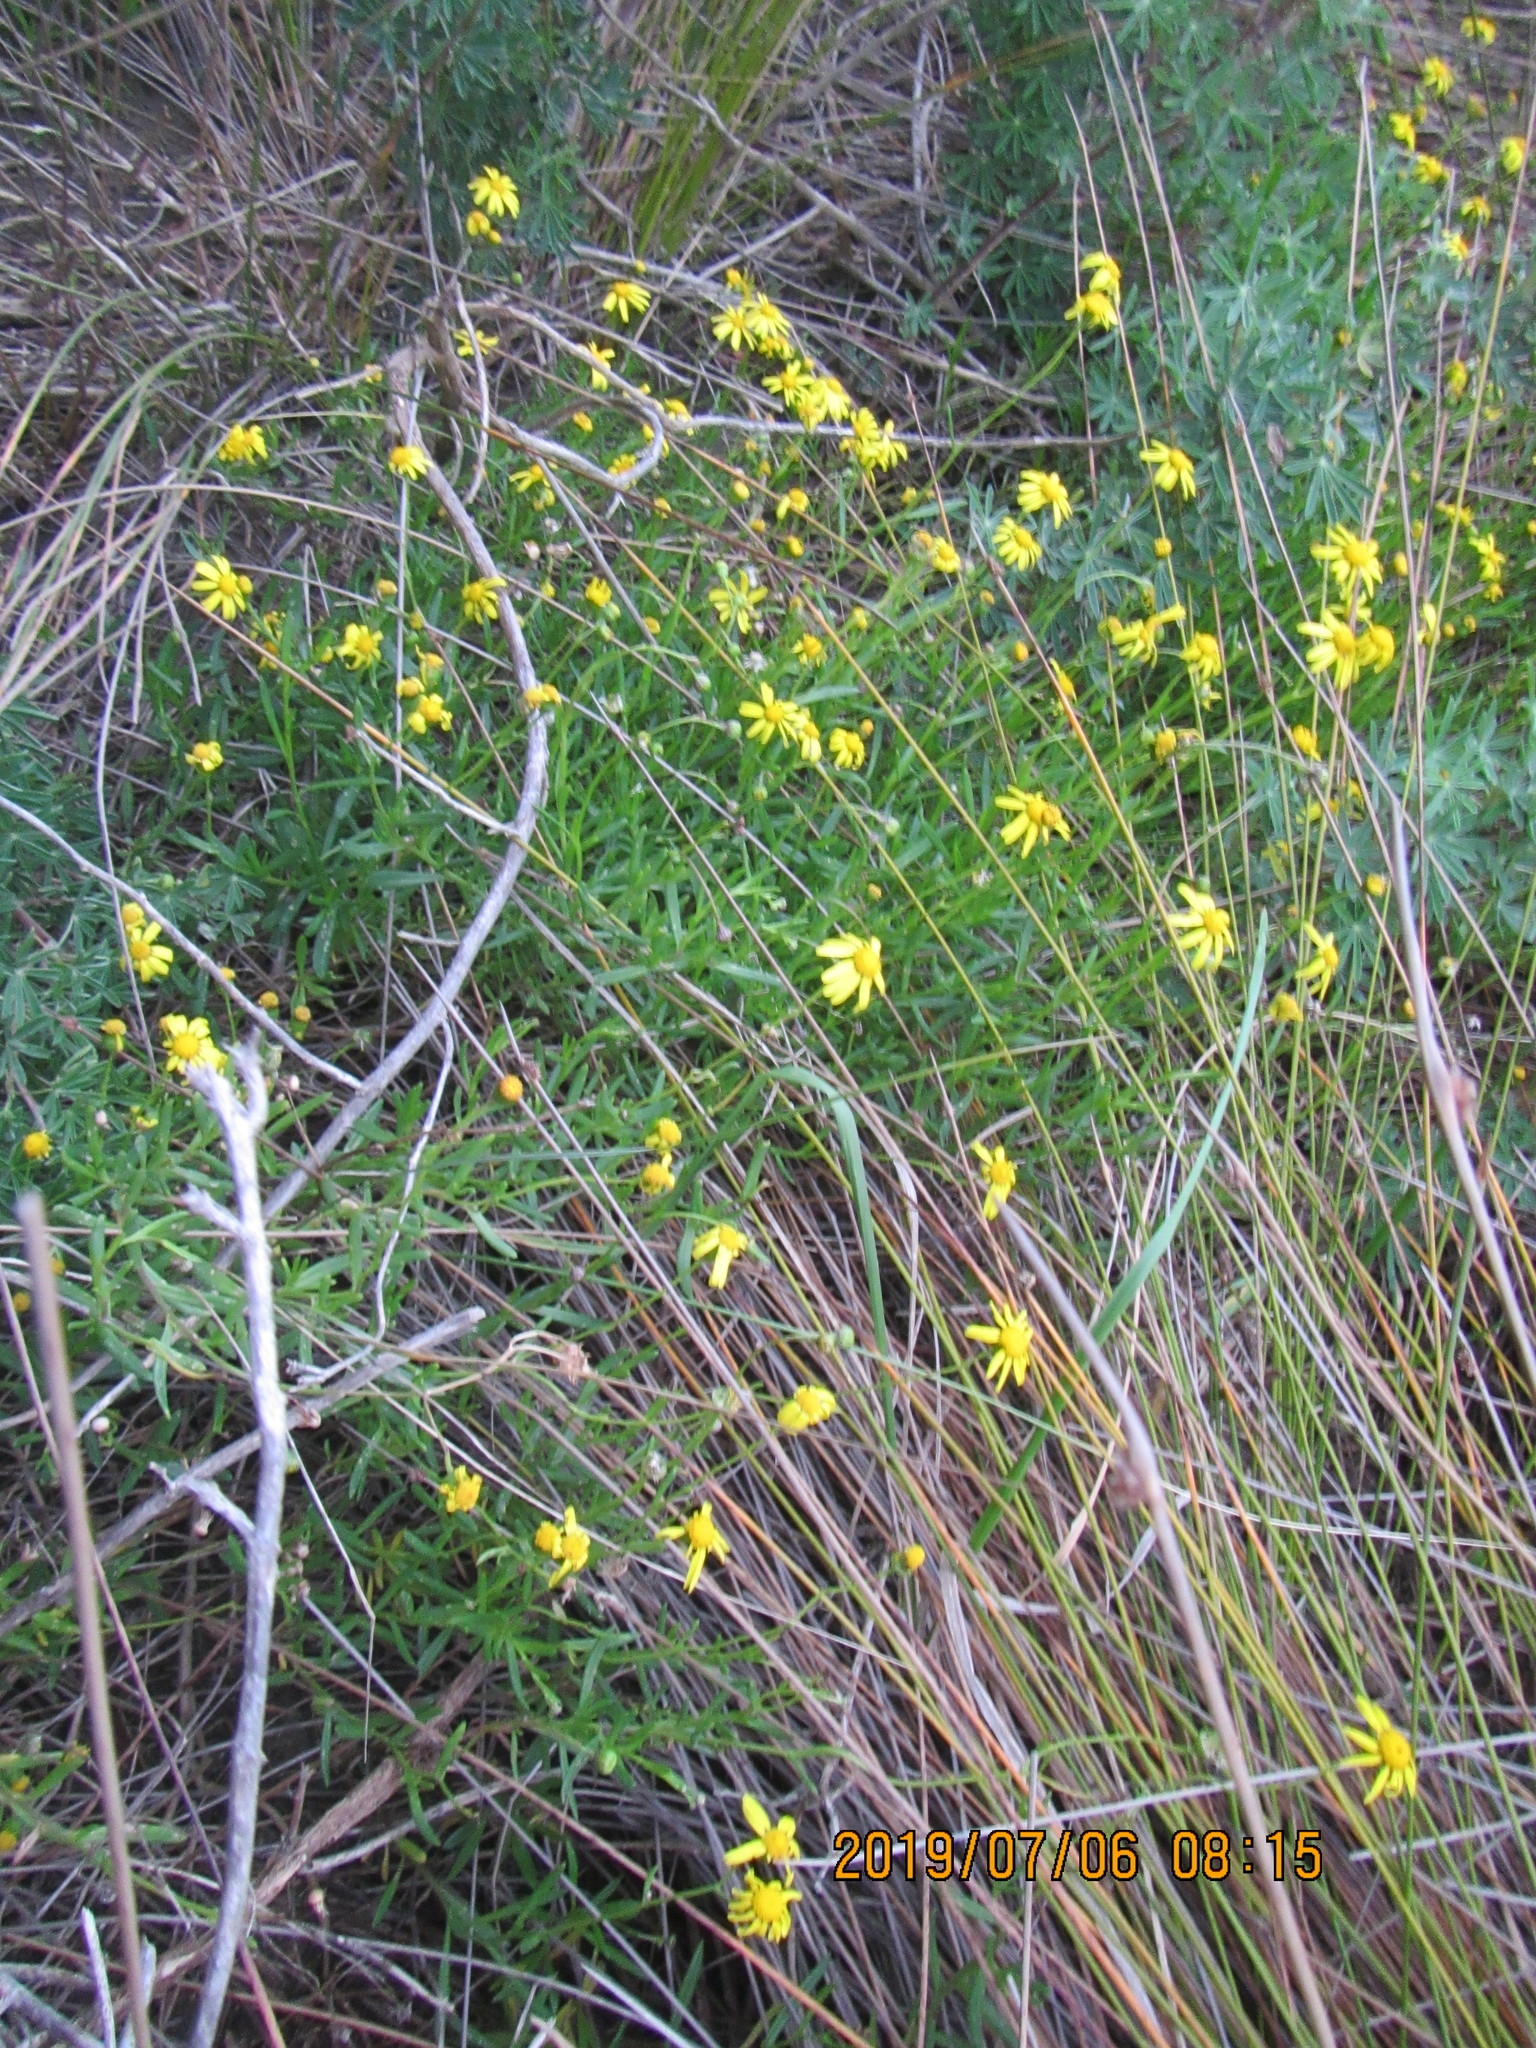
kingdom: Plantae
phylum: Tracheophyta
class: Magnoliopsida
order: Asterales
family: Asteraceae
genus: Senecio
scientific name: Senecio skirrhodon
